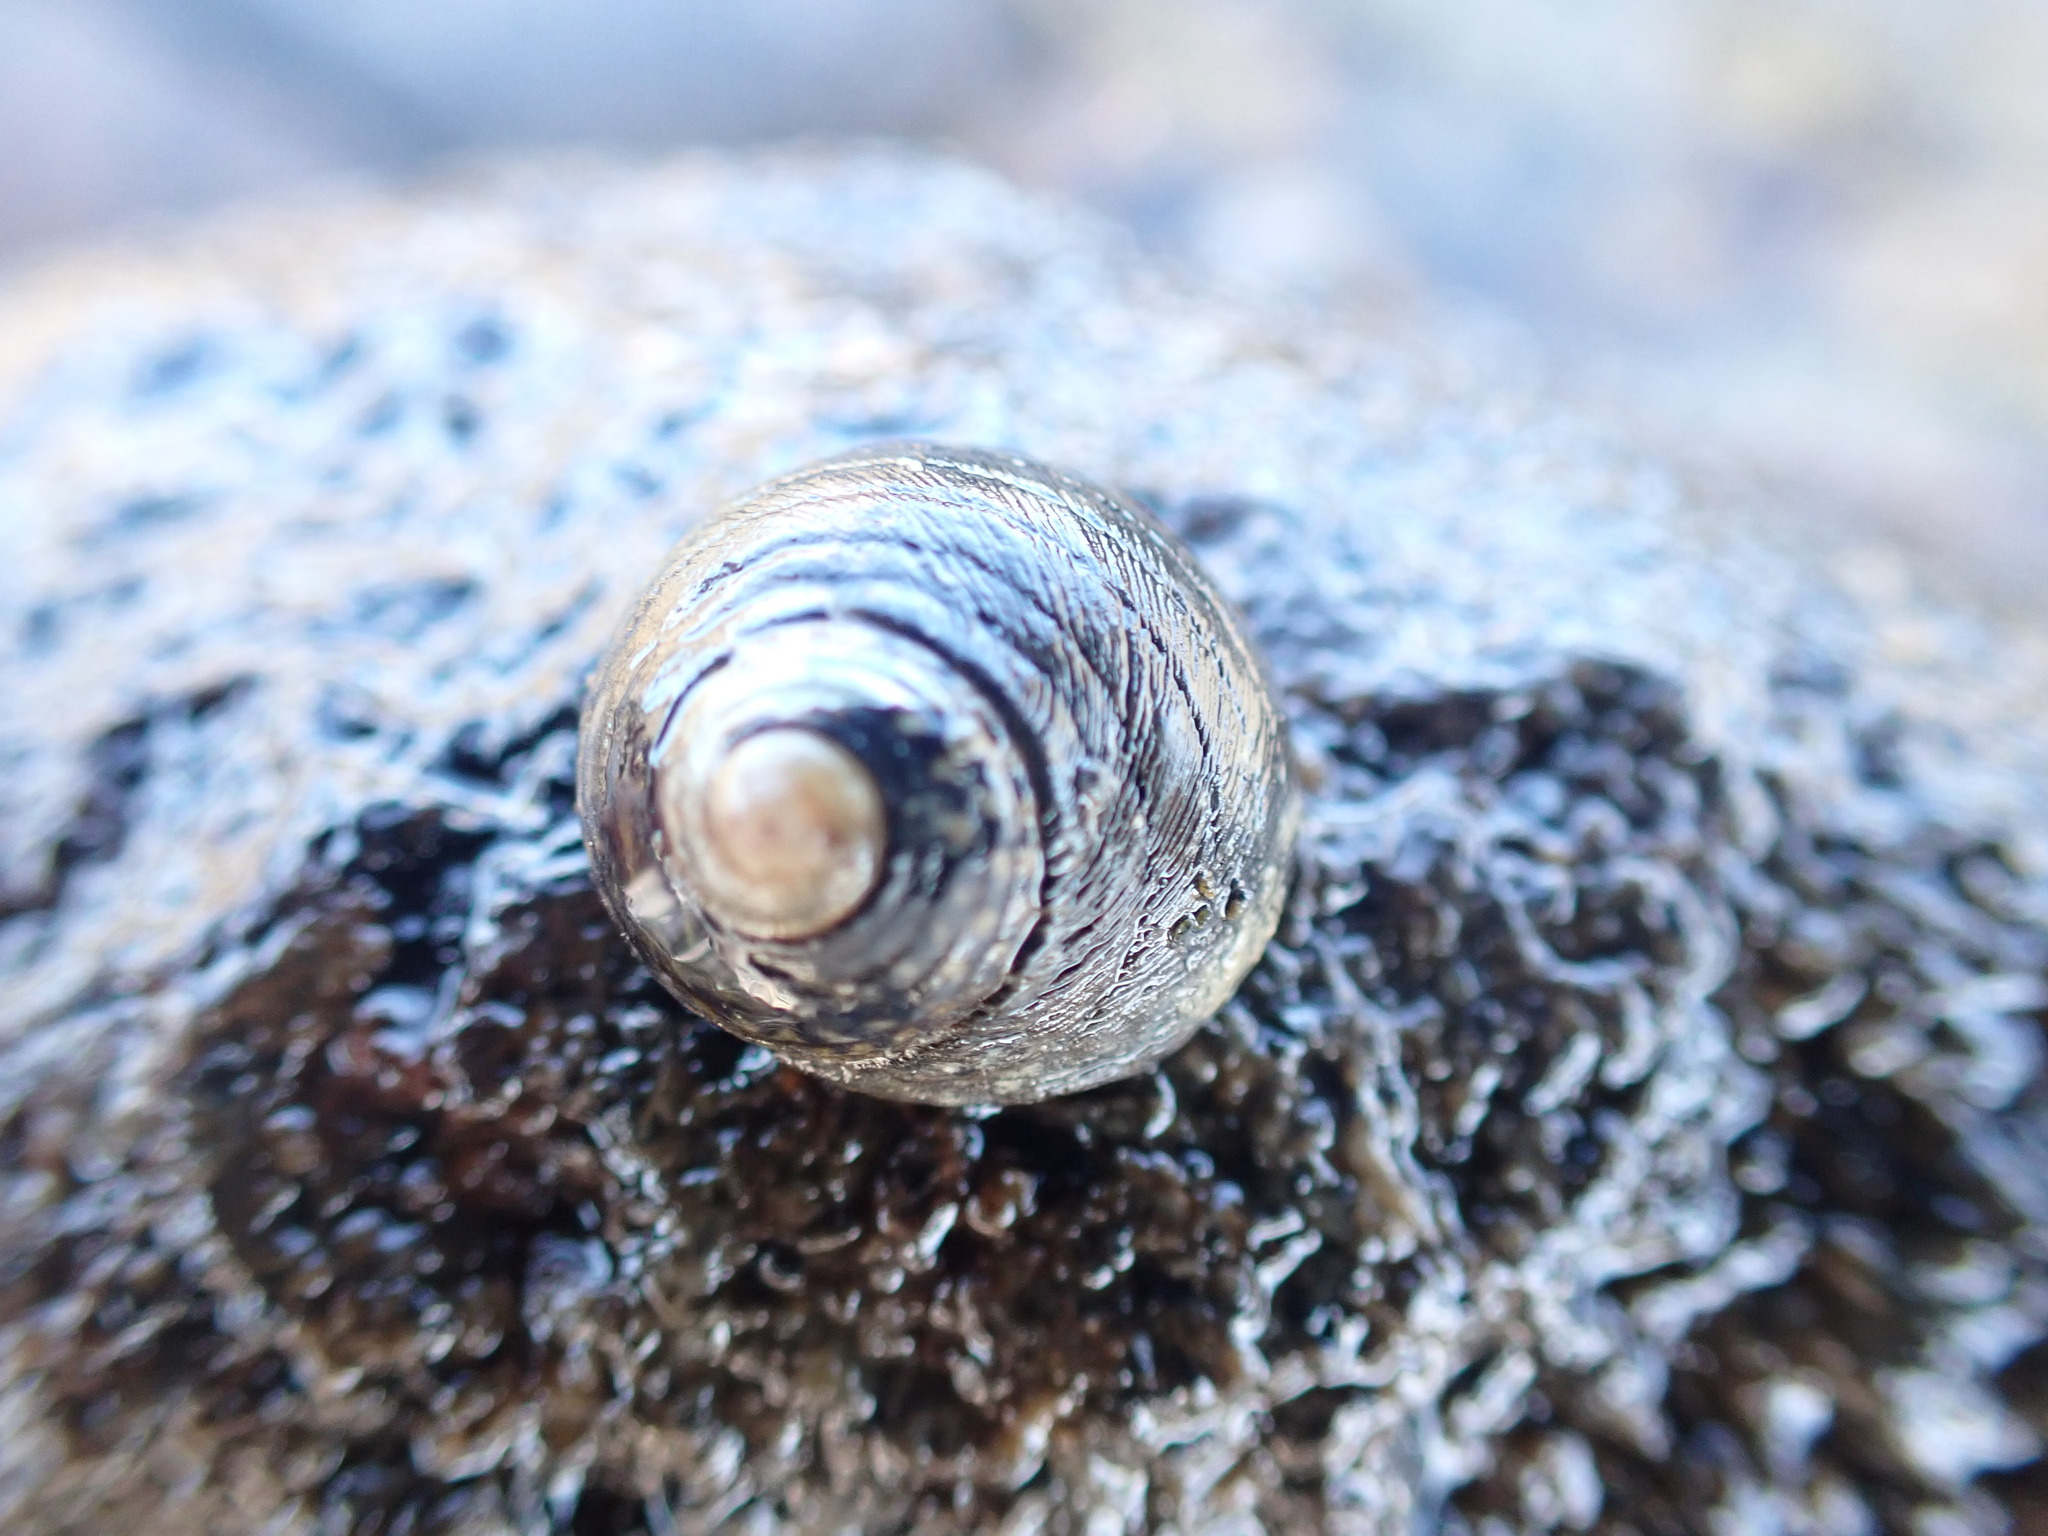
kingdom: Animalia
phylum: Mollusca
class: Gastropoda
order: Trochida
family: Trochidae
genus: Diloma
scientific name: Diloma aethiops
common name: Scorched monodont
